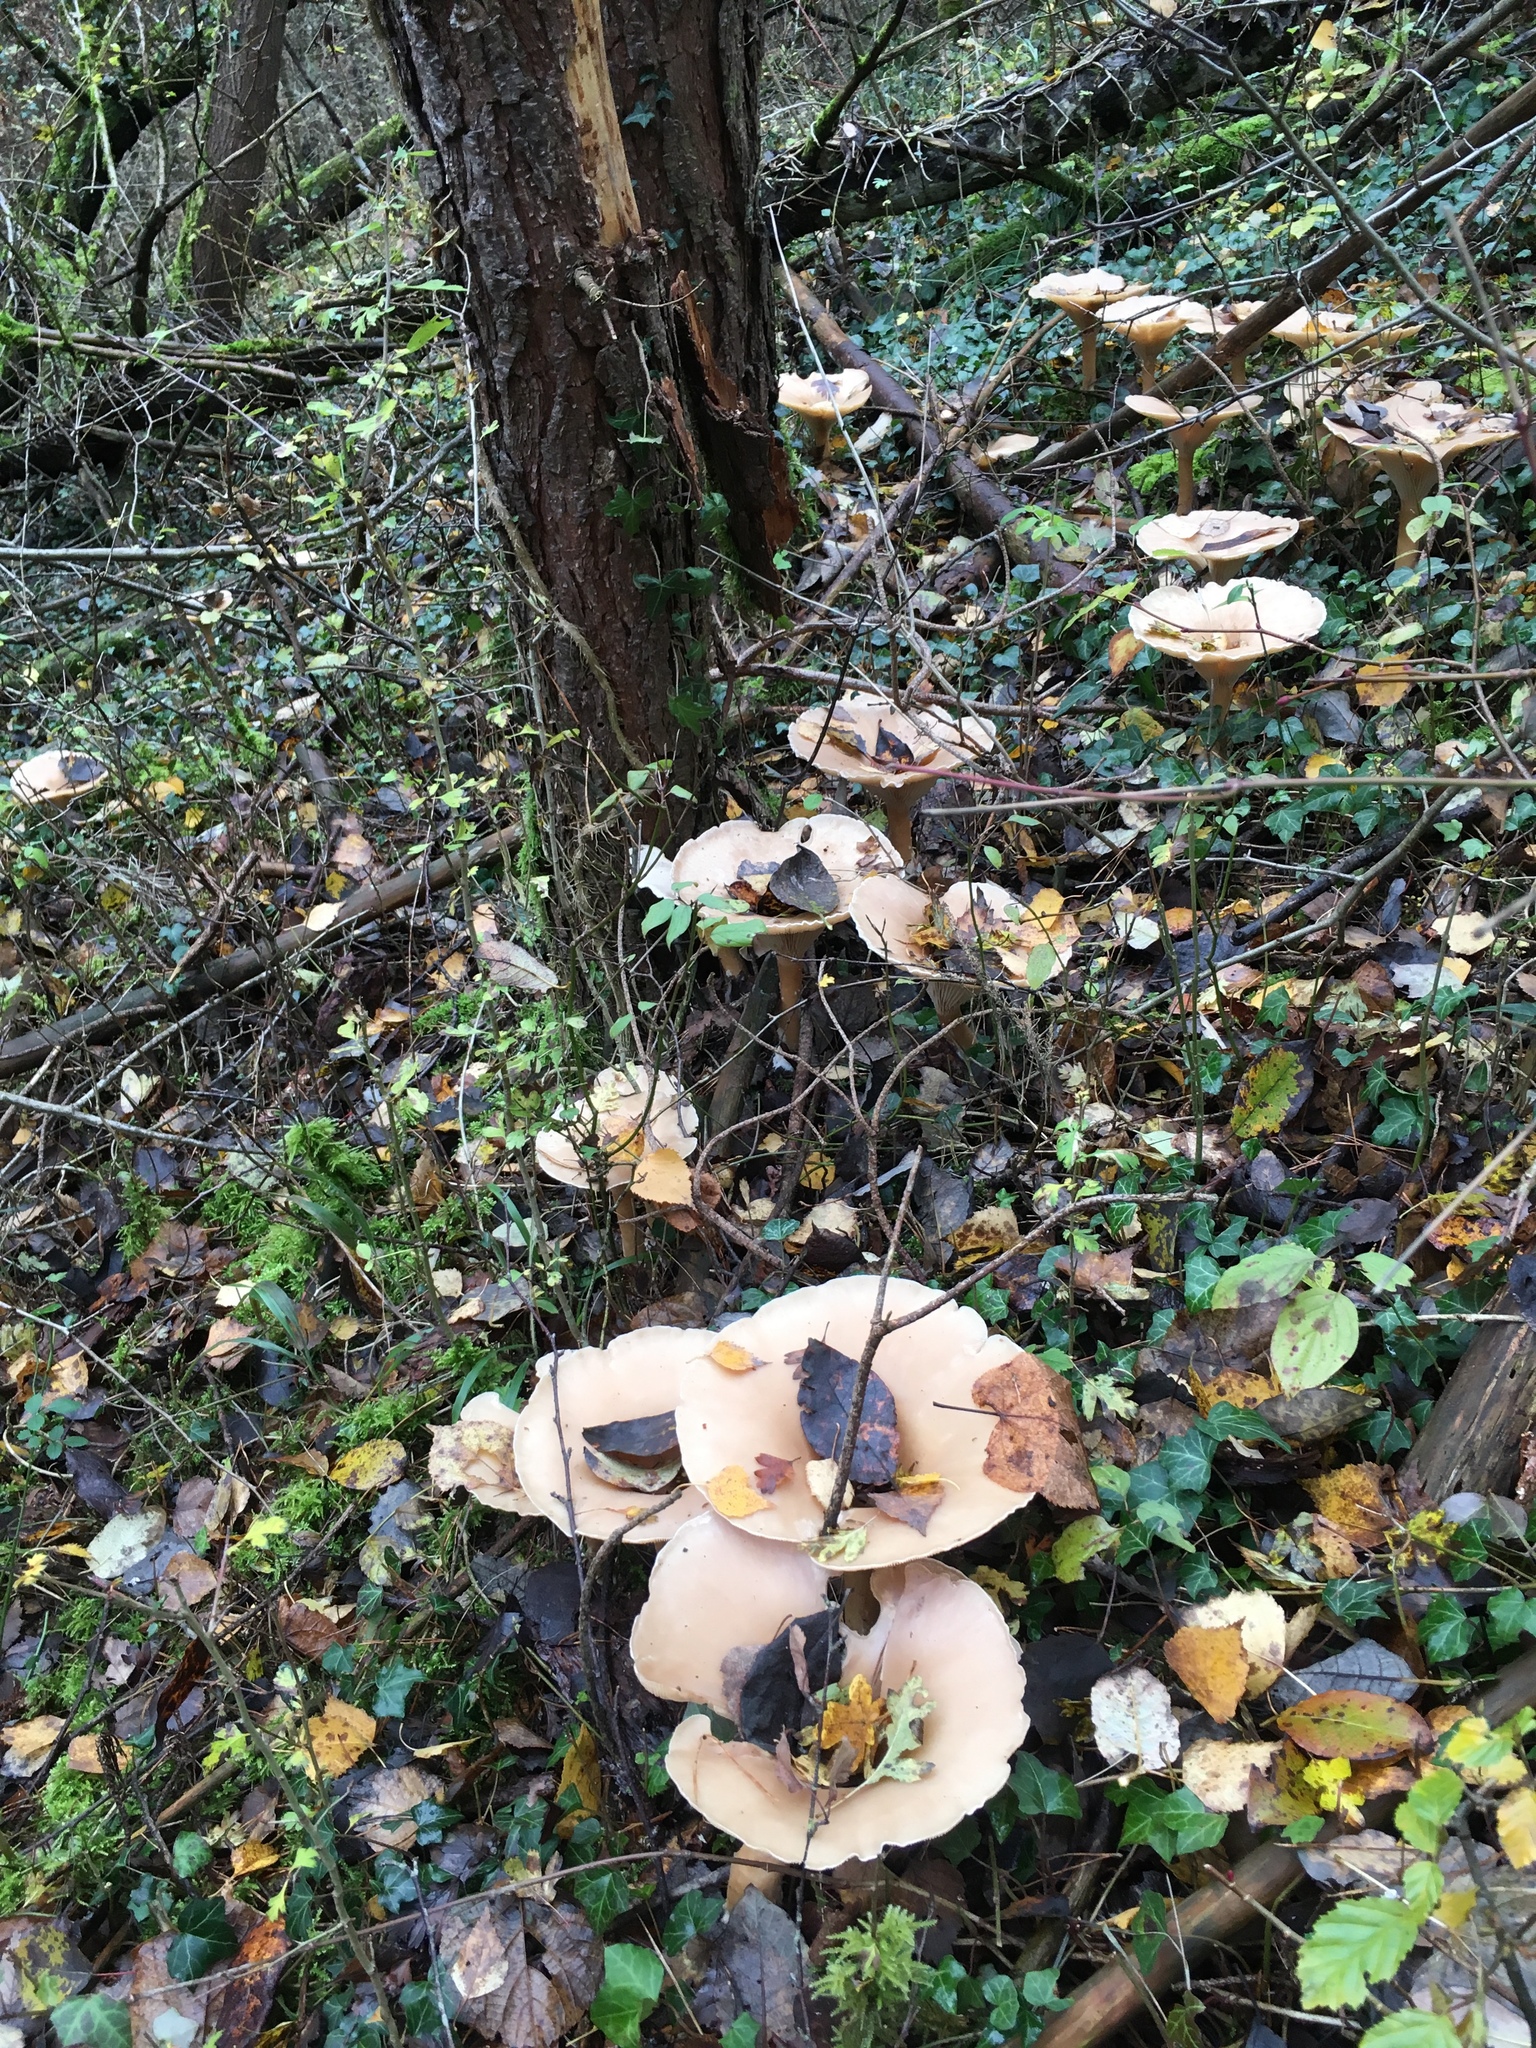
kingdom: Fungi
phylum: Basidiomycota
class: Agaricomycetes
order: Agaricales
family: Tricholomataceae
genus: Infundibulicybe
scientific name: Infundibulicybe geotropa
